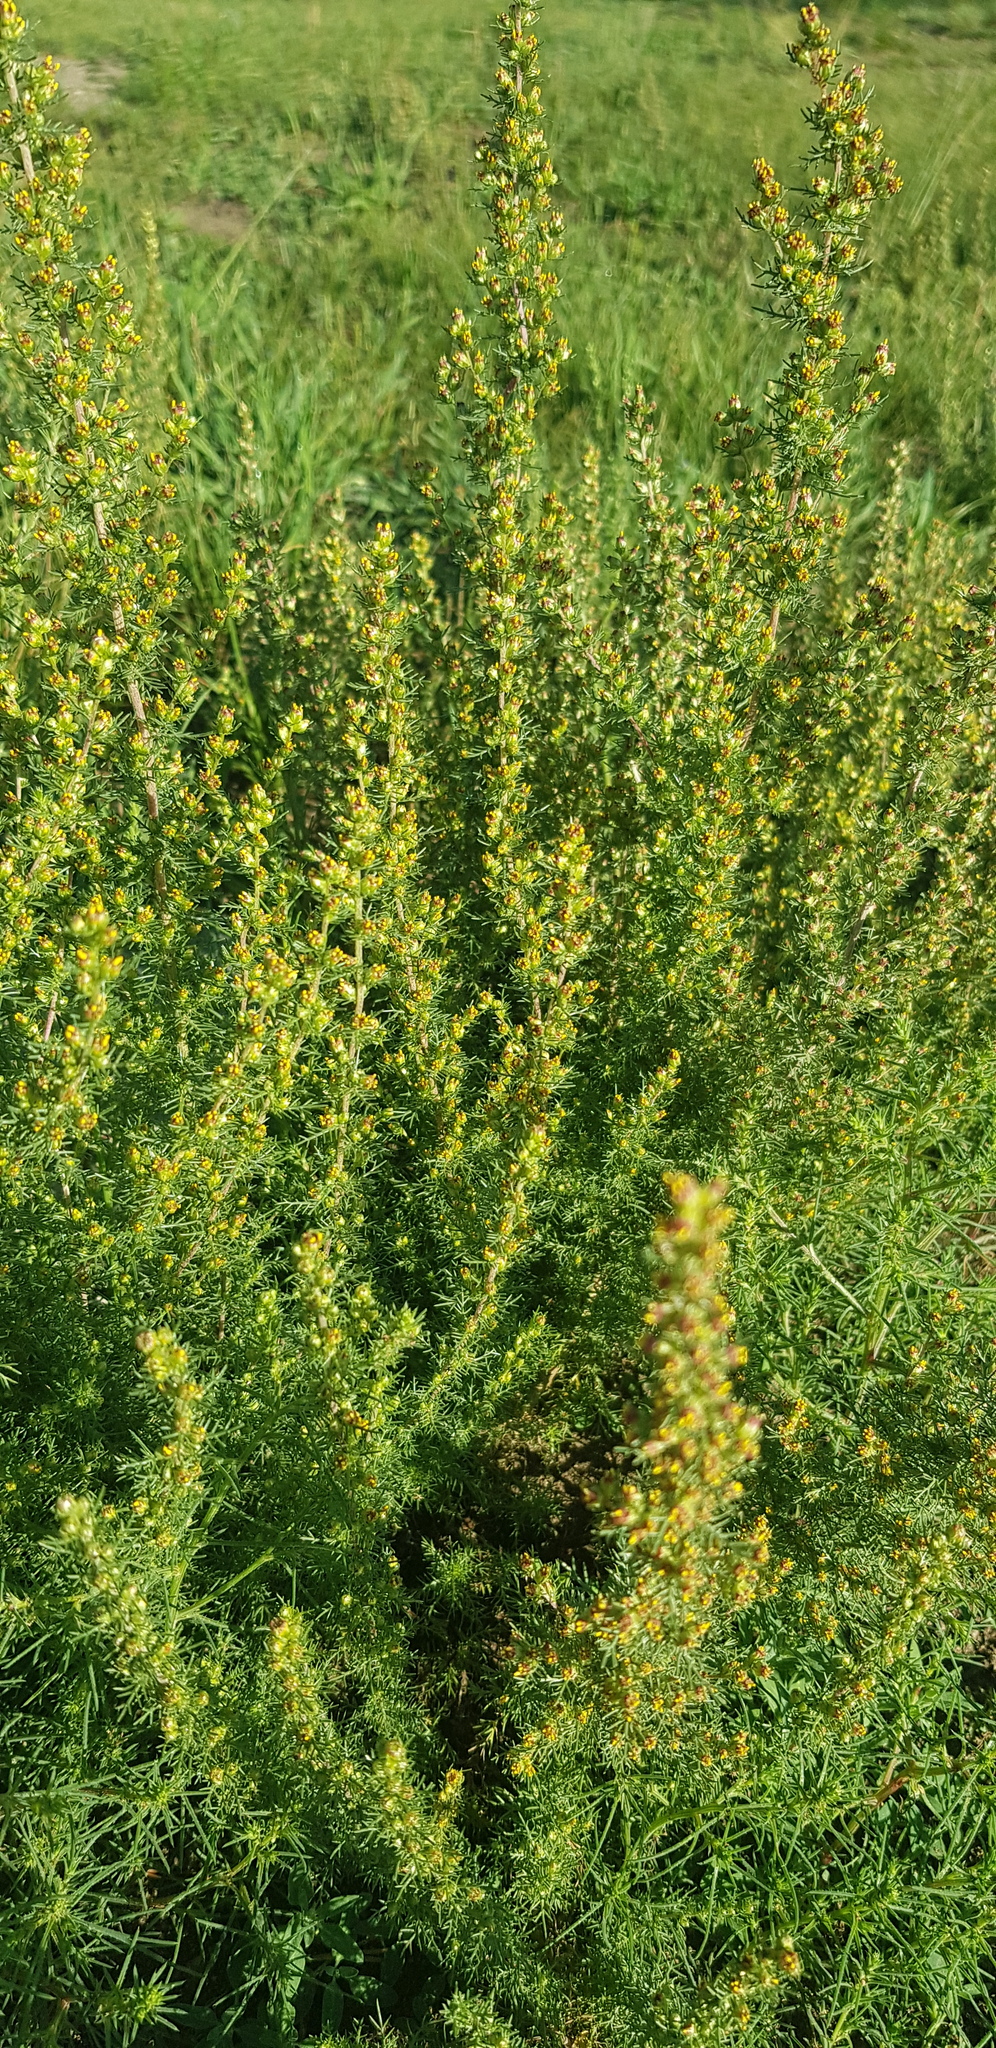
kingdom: Plantae
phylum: Tracheophyta
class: Magnoliopsida
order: Asterales
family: Asteraceae
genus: Neopallasia
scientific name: Neopallasia pectinata
